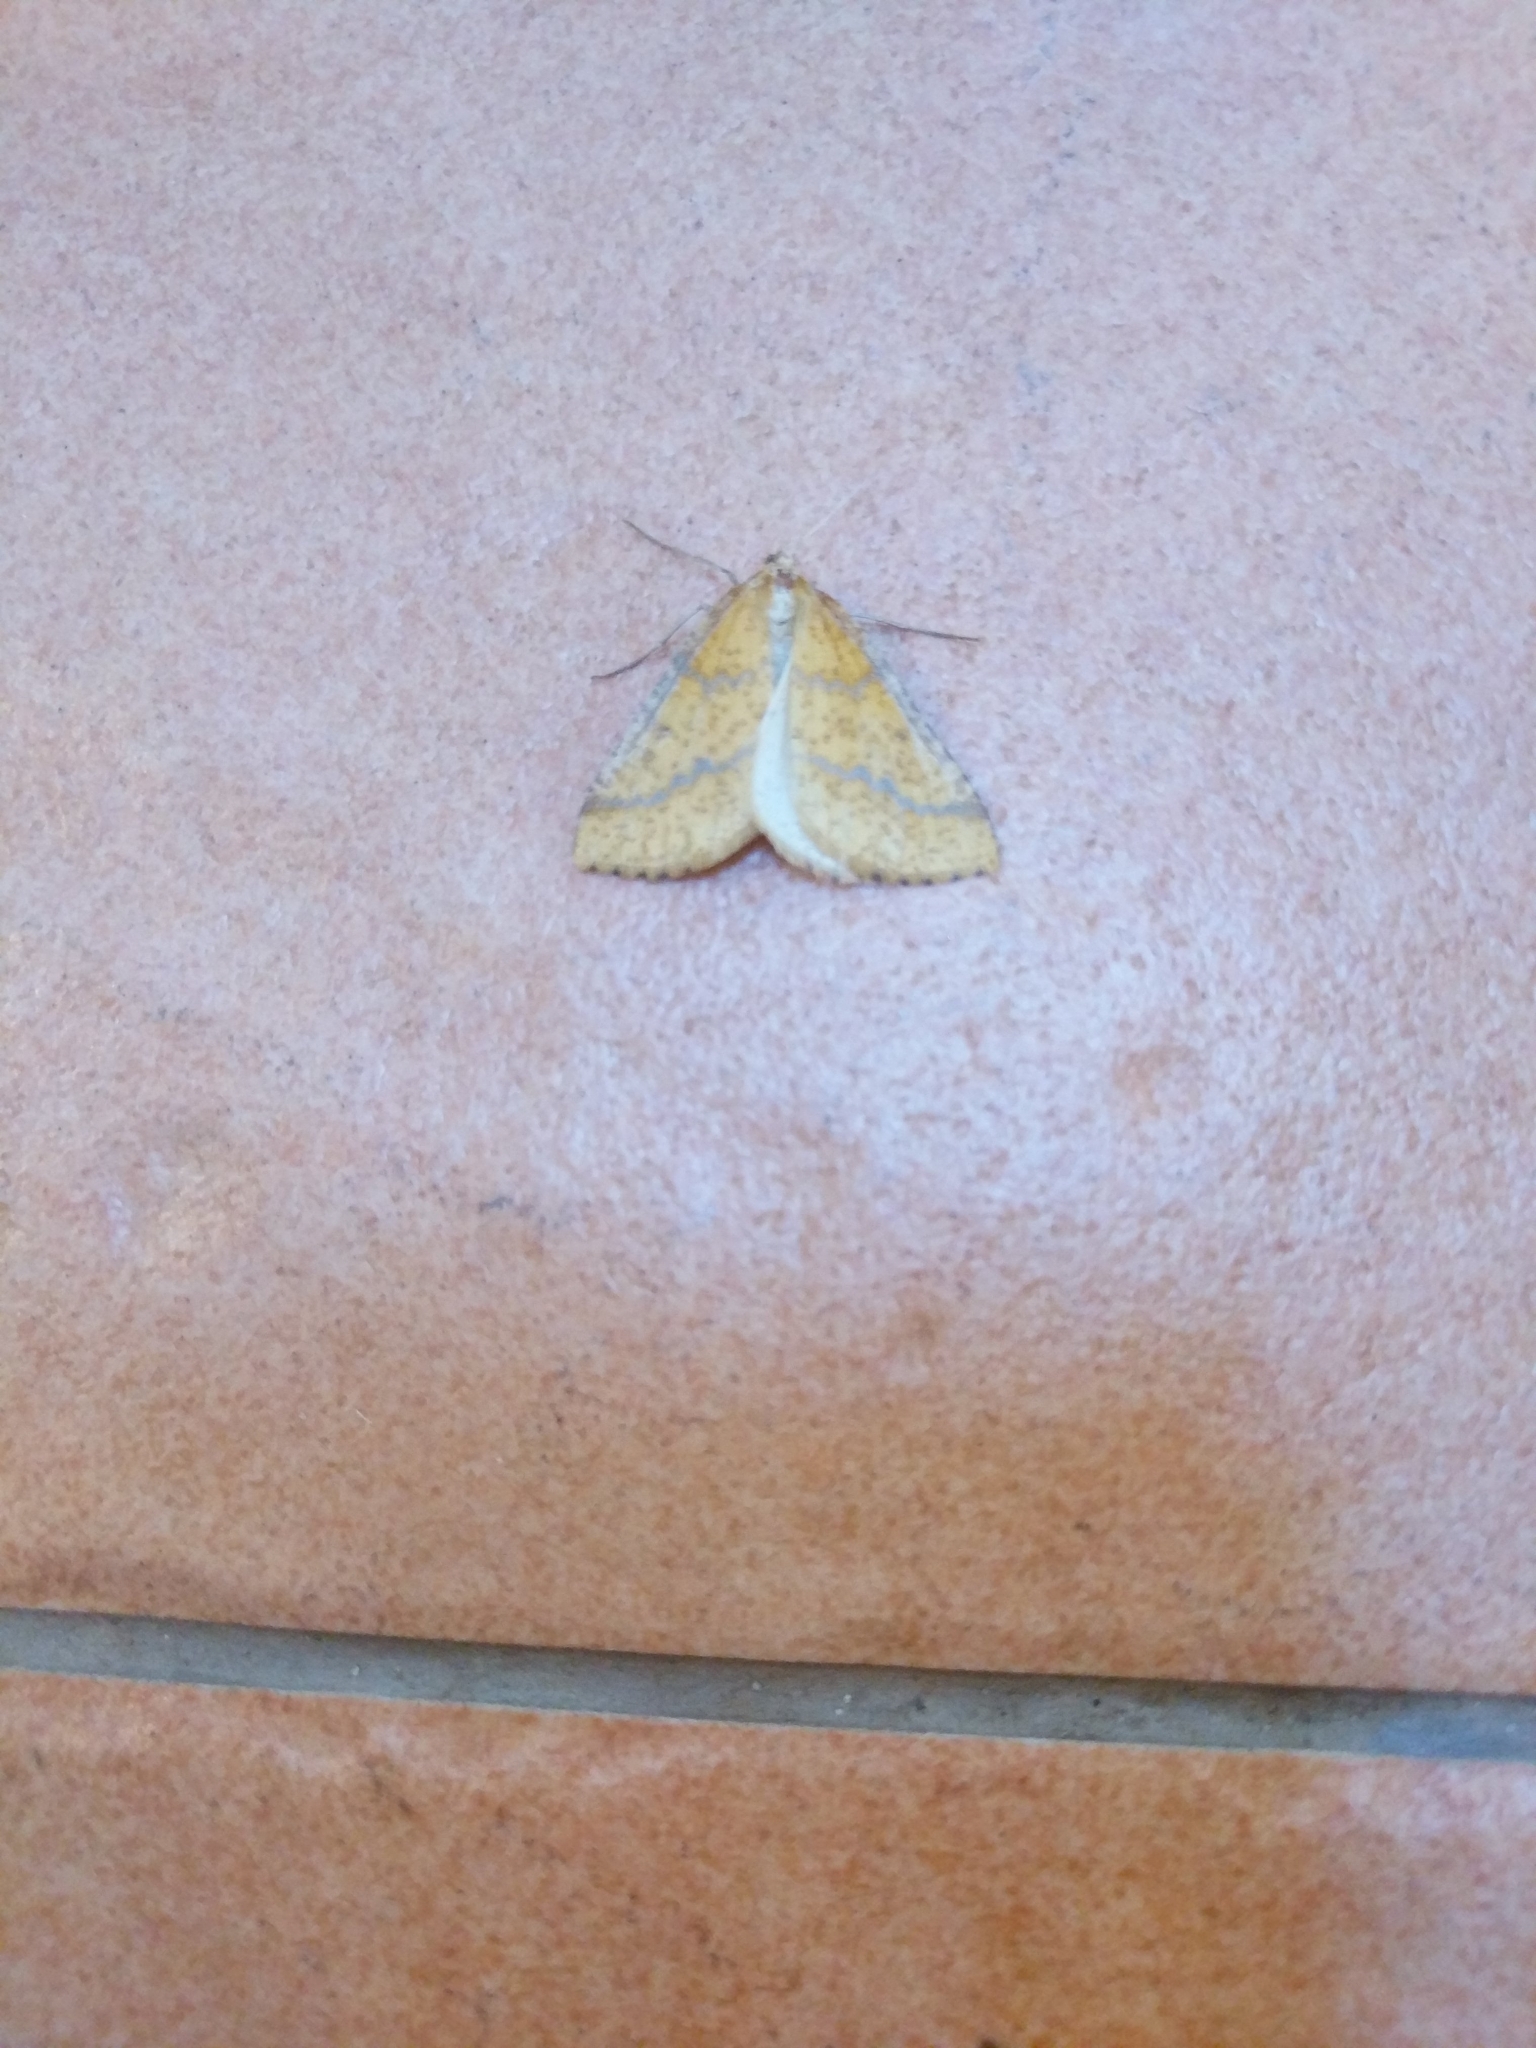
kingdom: Animalia
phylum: Arthropoda
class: Insecta
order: Lepidoptera
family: Geometridae
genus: Aspitates
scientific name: Aspitates ochrearia
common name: Yellow belle
